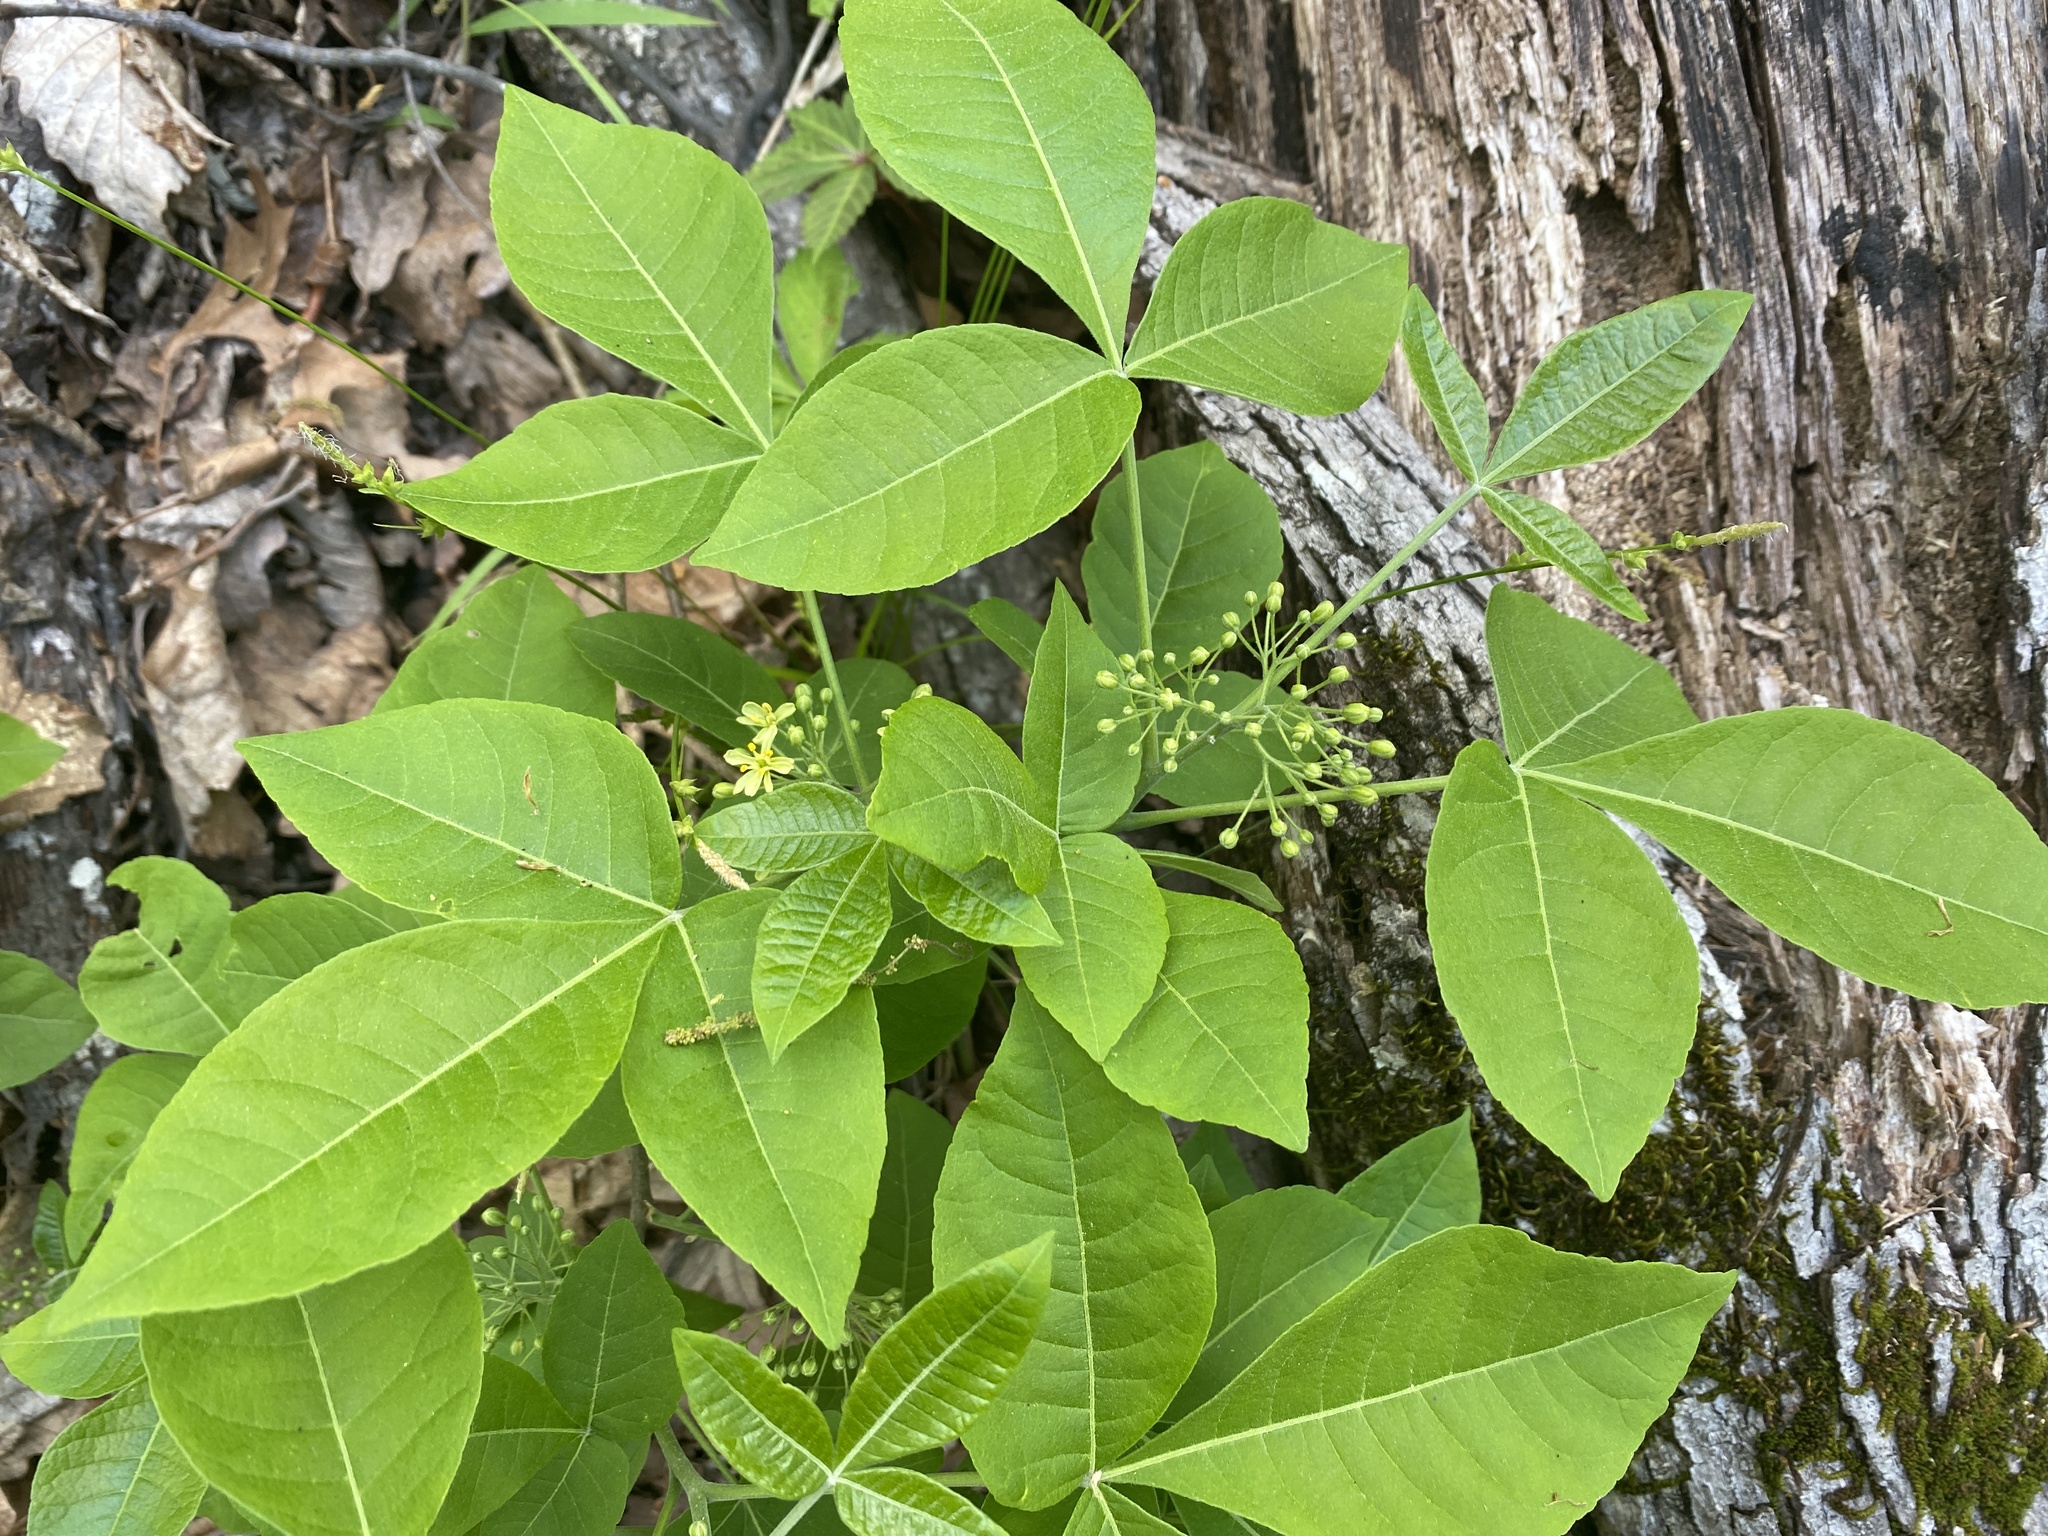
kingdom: Plantae
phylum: Tracheophyta
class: Magnoliopsida
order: Sapindales
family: Rutaceae
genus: Ptelea
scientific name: Ptelea trifoliata
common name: Common hop-tree
